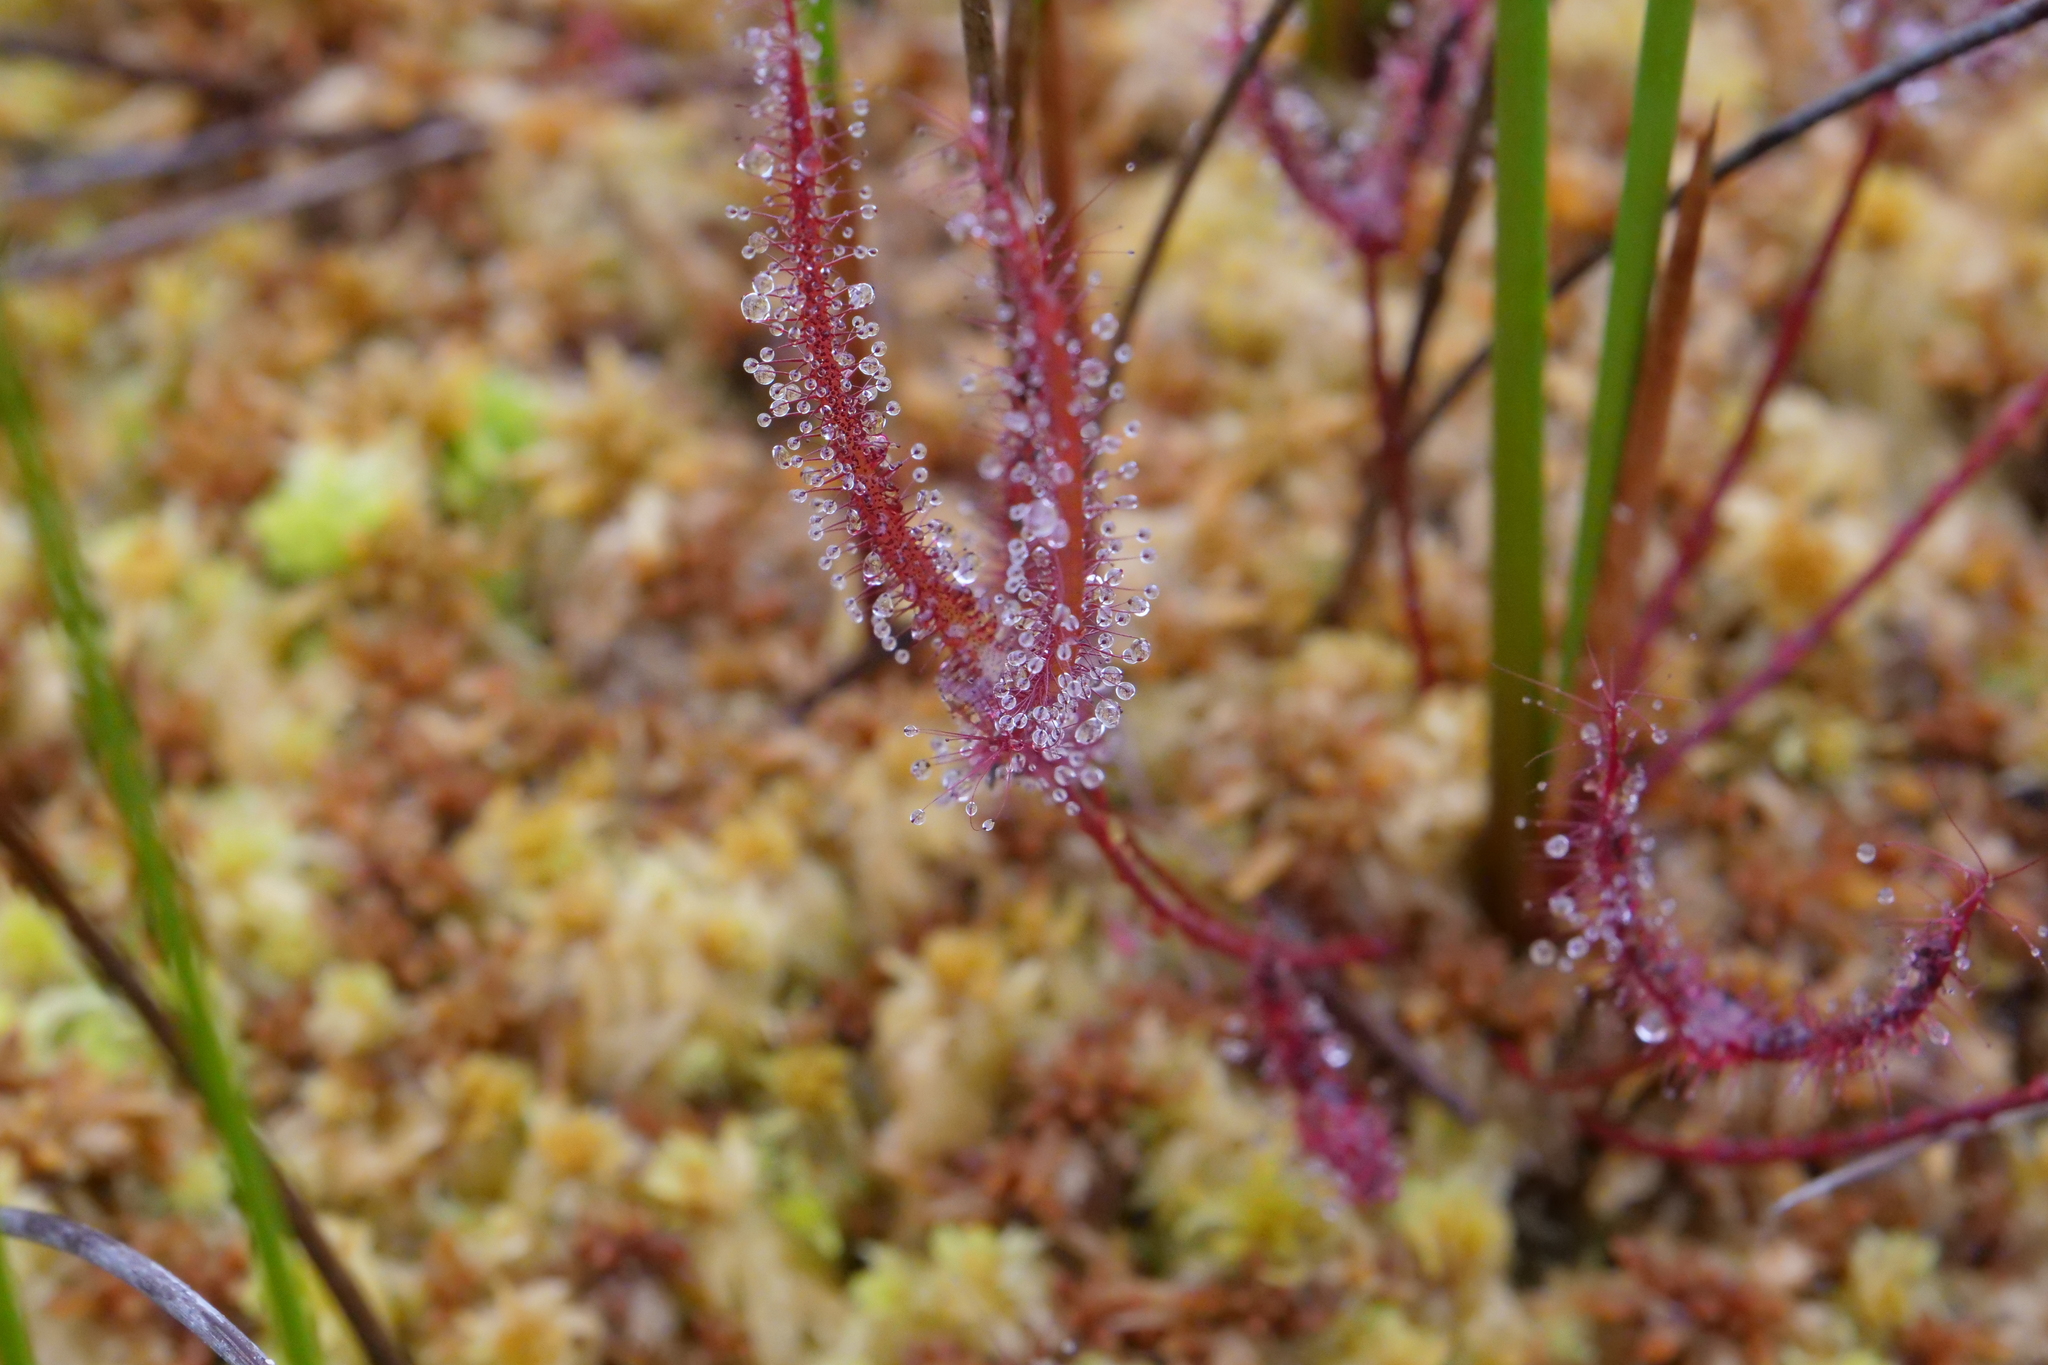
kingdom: Plantae
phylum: Tracheophyta
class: Magnoliopsida
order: Caryophyllales
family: Droseraceae
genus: Drosera
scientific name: Drosera binata
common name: Forked sundew
